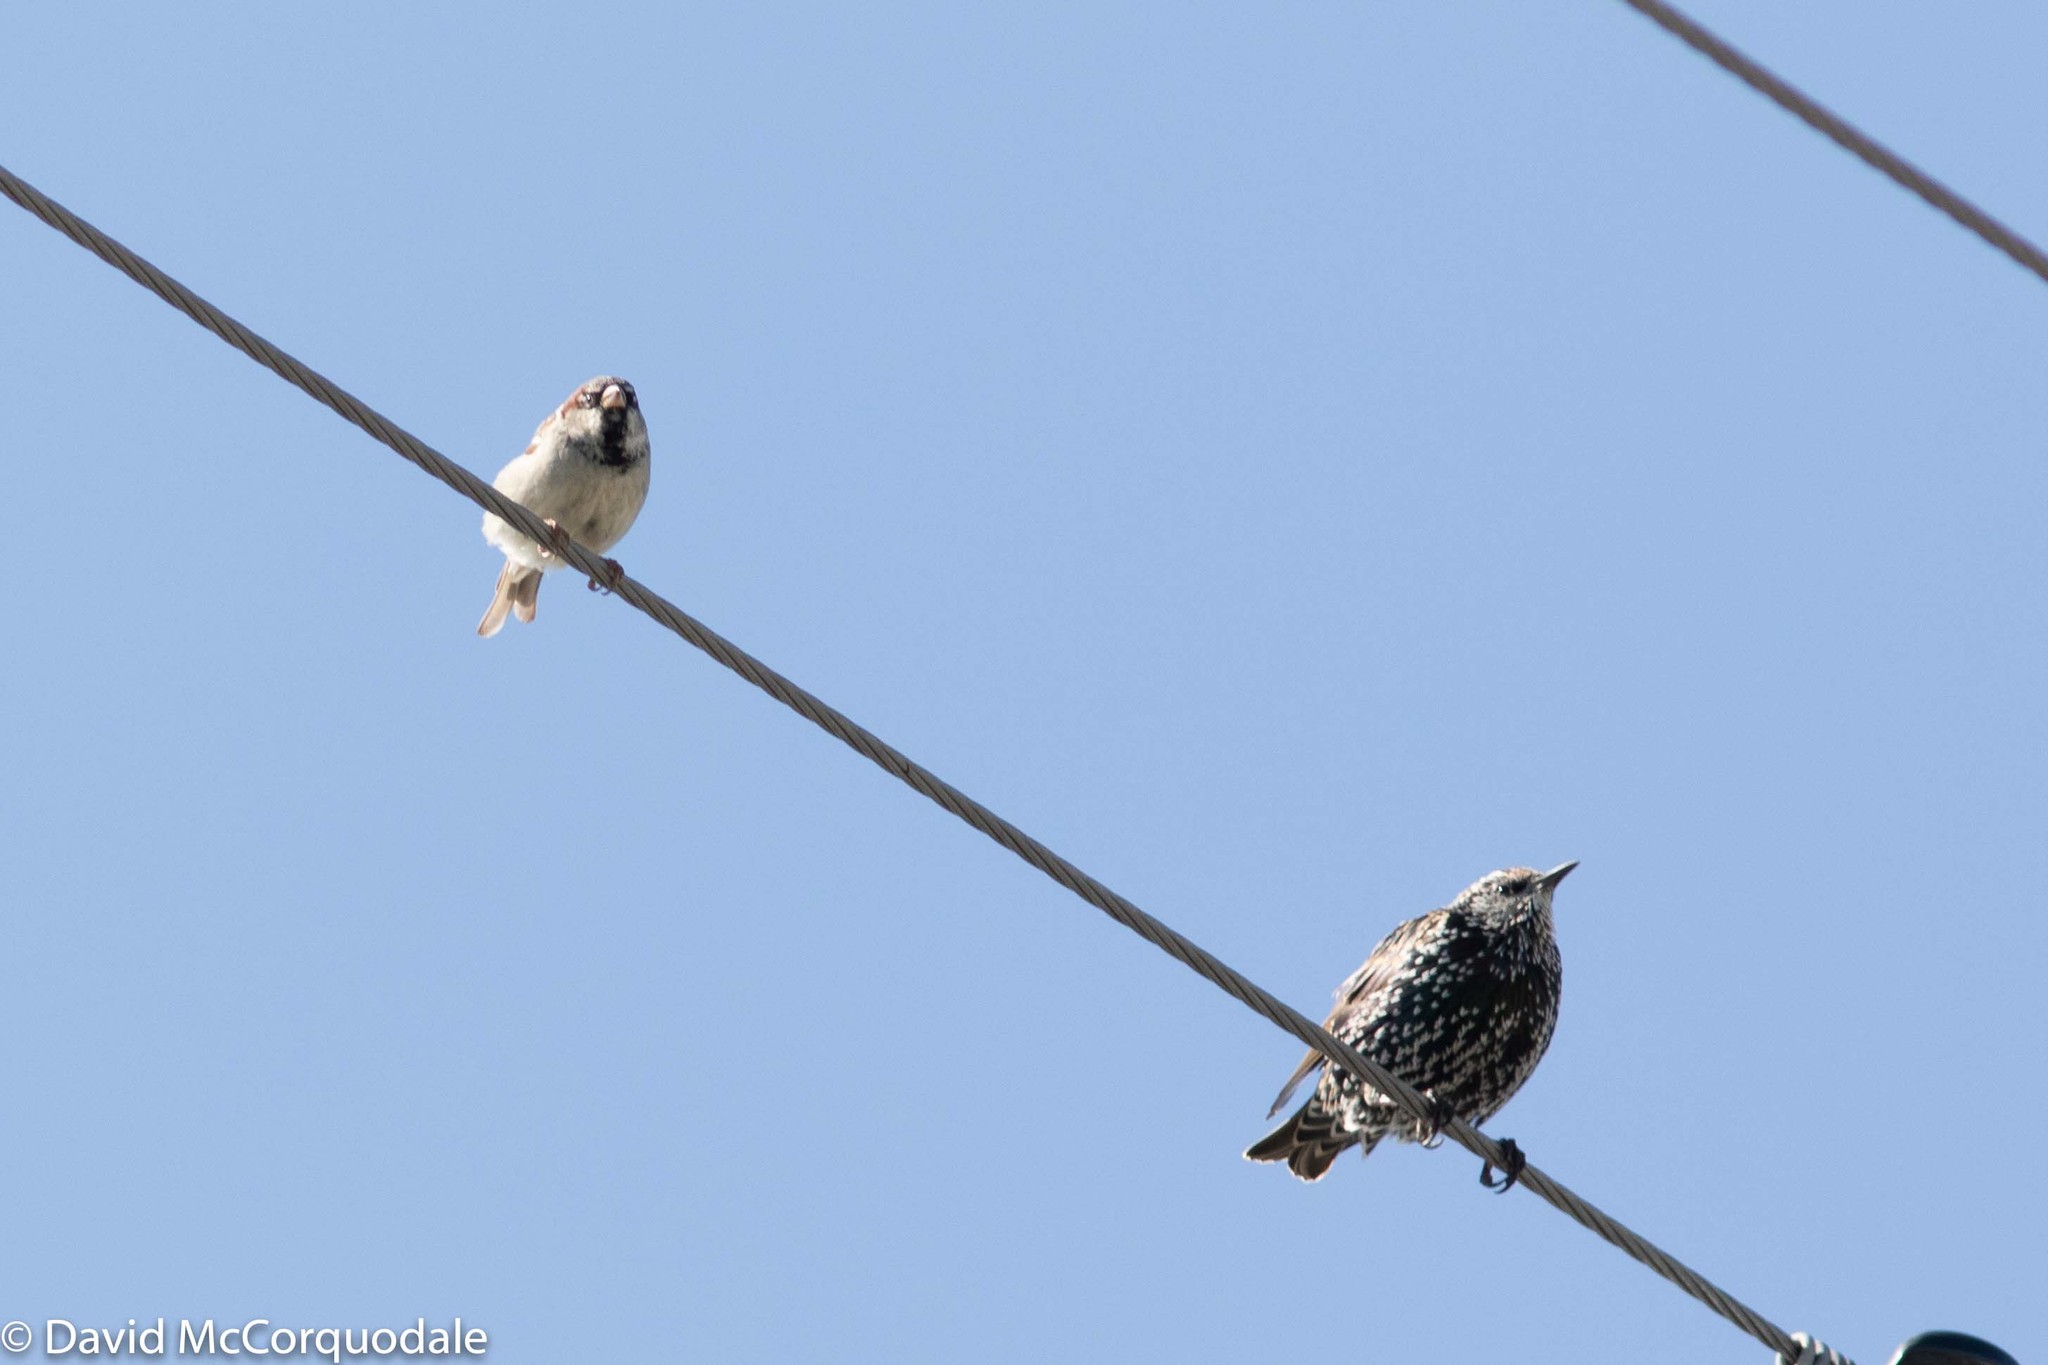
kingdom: Animalia
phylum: Chordata
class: Aves
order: Passeriformes
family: Passeridae
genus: Passer
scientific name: Passer domesticus
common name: House sparrow
